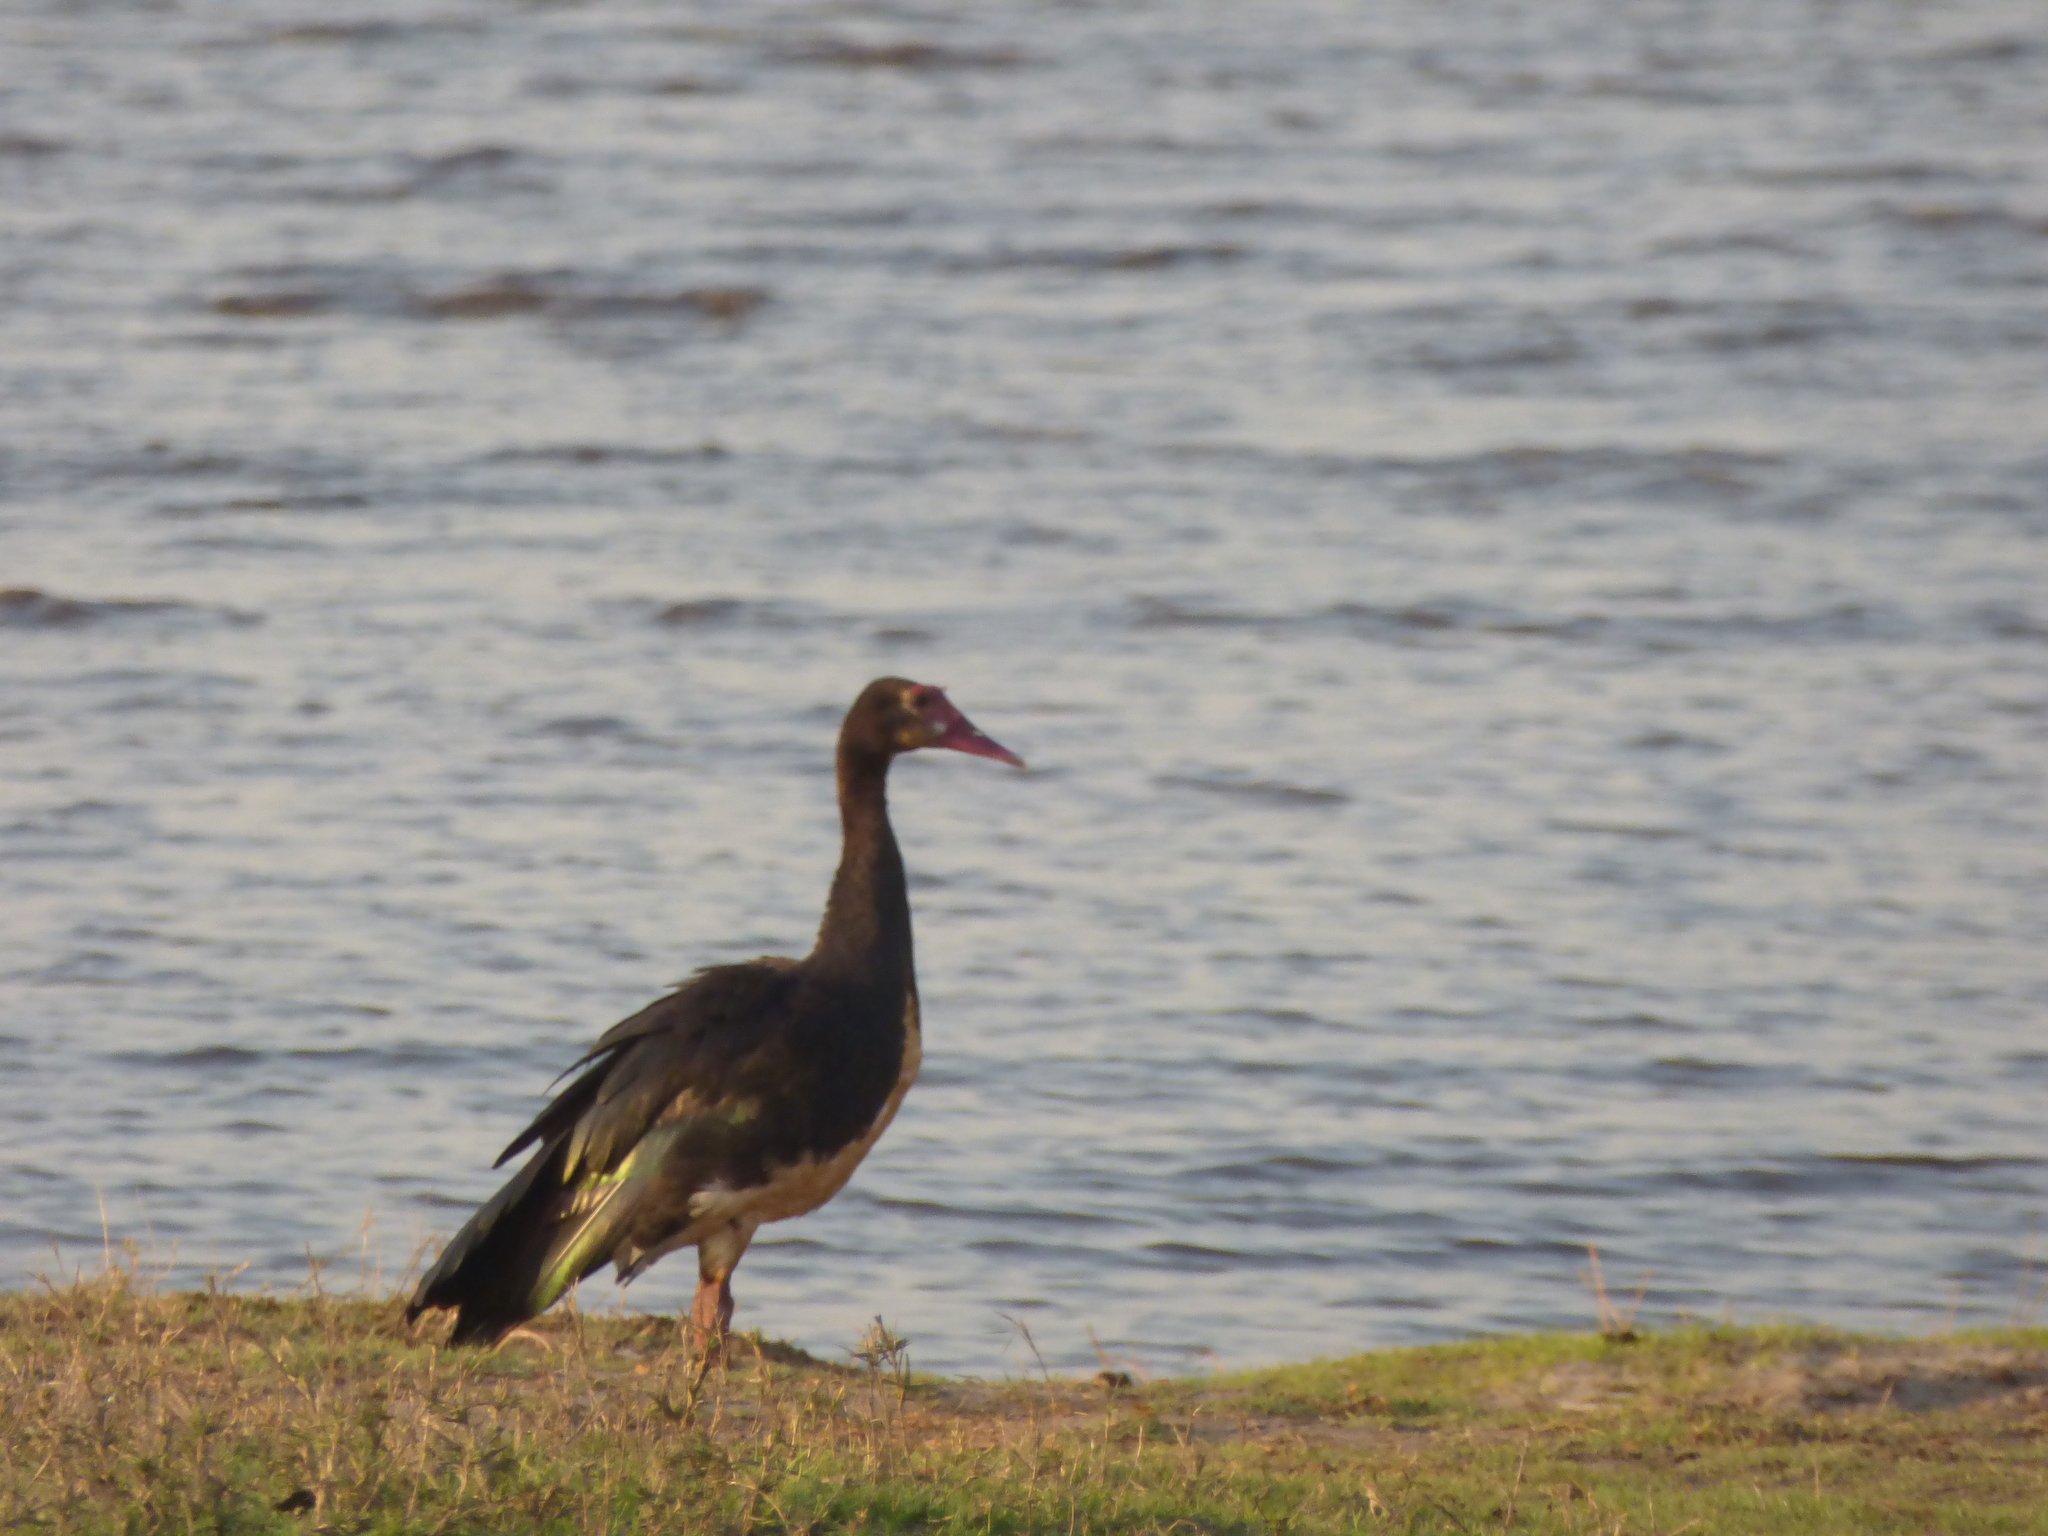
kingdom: Animalia
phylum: Chordata
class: Aves
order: Anseriformes
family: Anatidae
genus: Plectropterus
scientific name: Plectropterus gambensis
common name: Spur-winged goose
